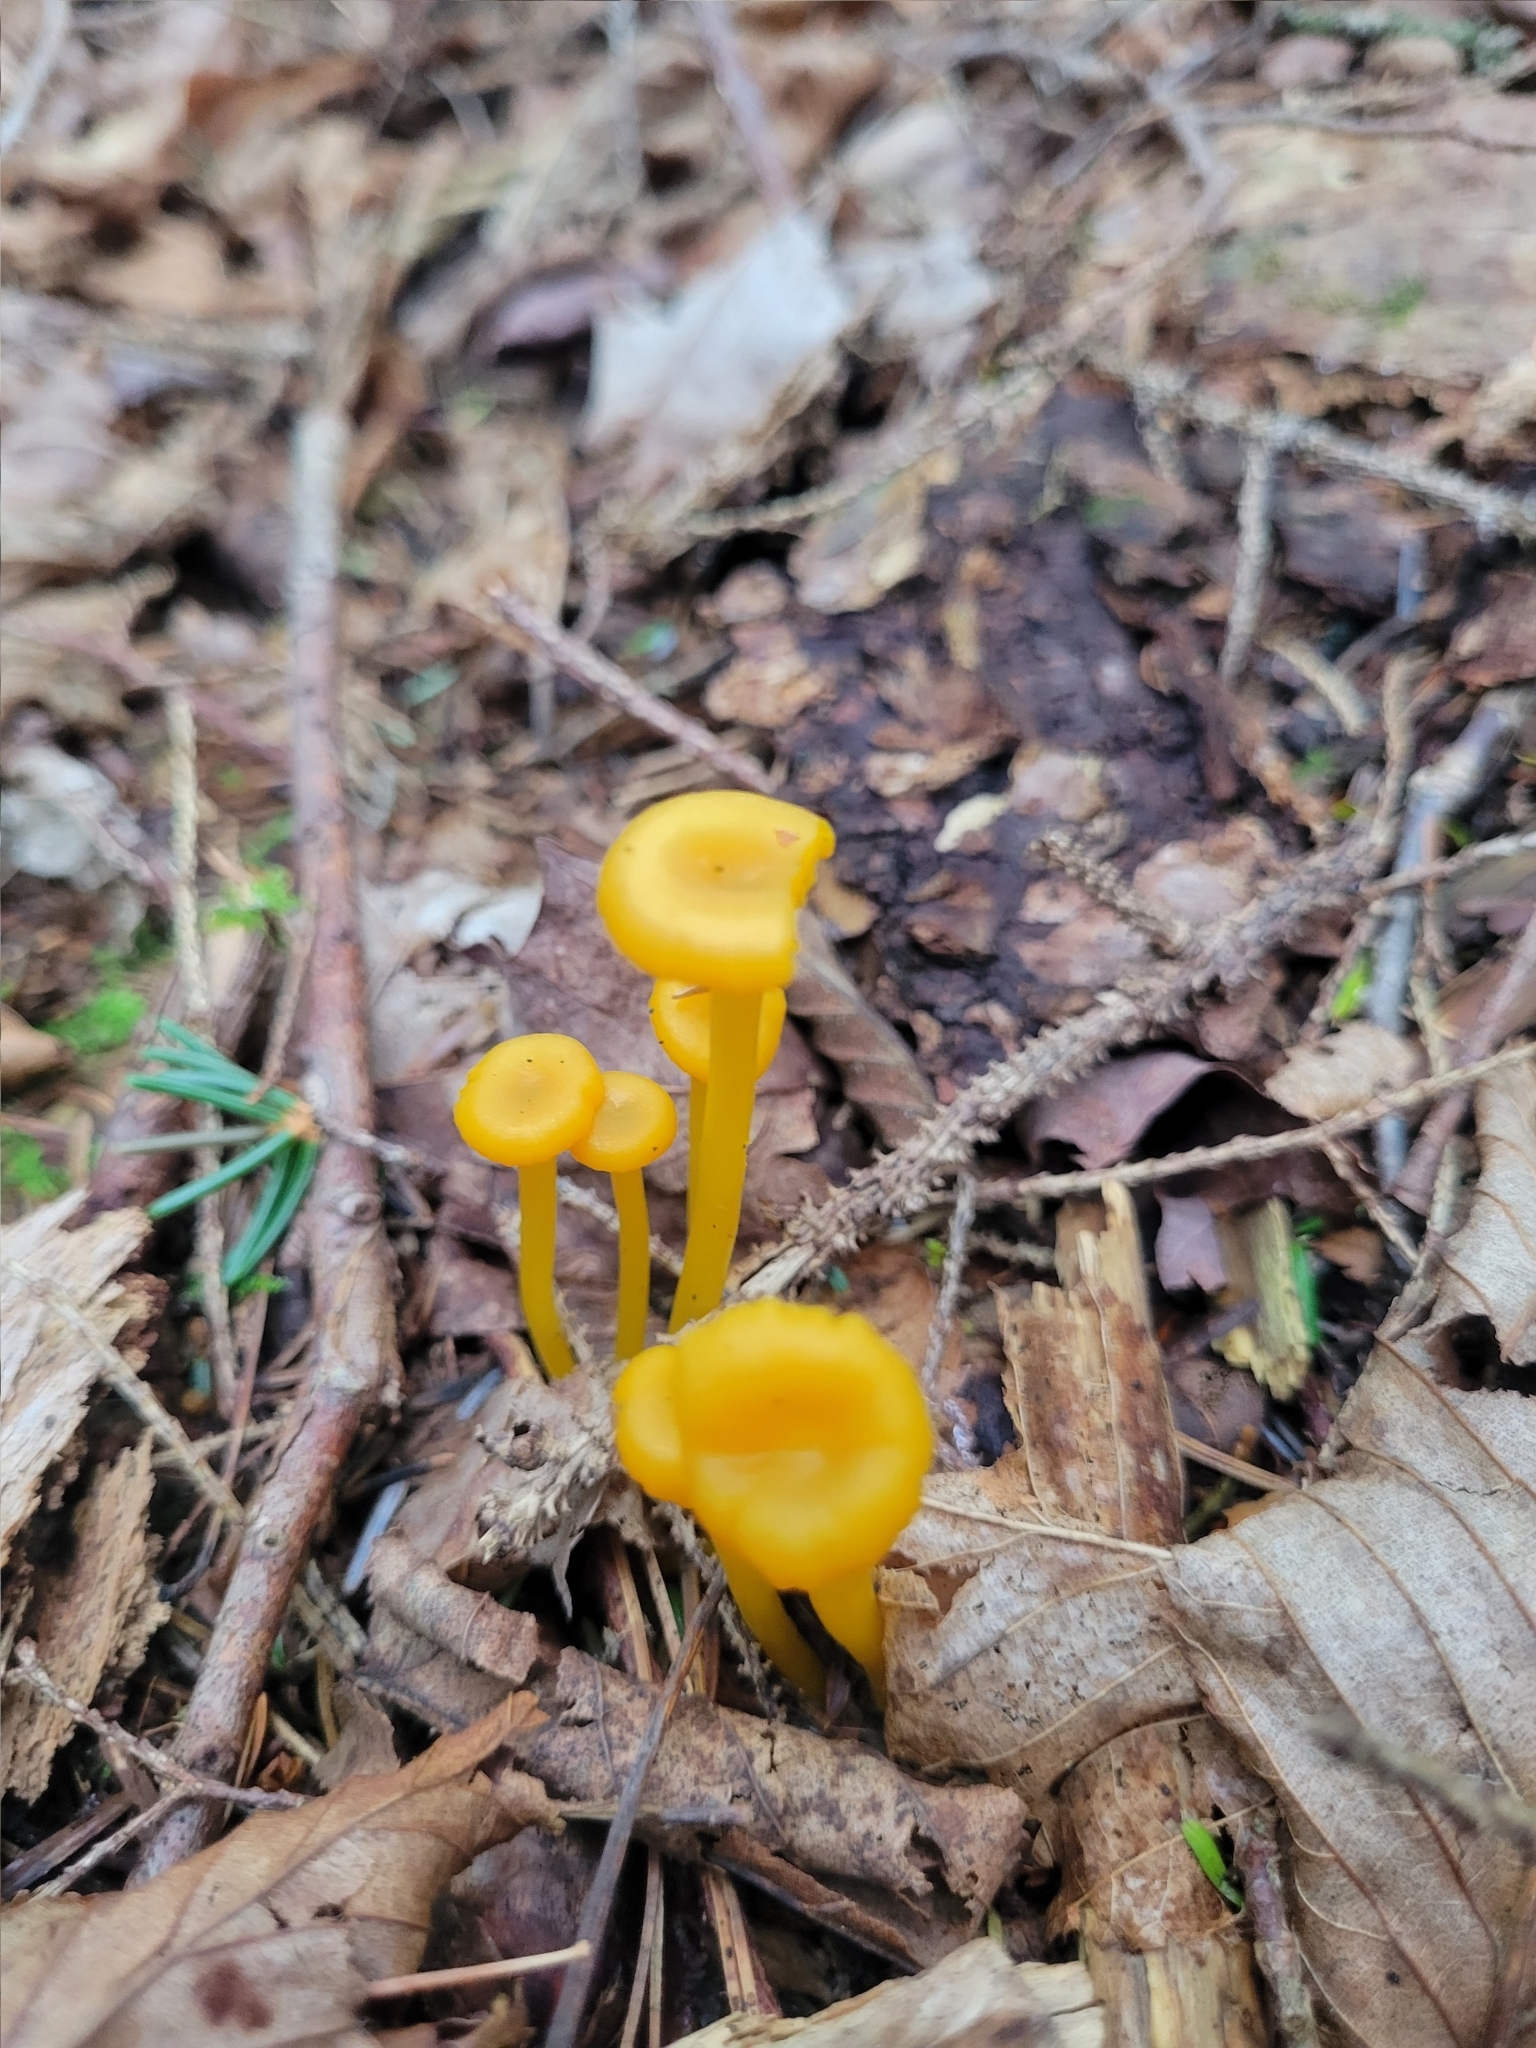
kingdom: Fungi
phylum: Basidiomycota
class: Agaricomycetes
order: Agaricales
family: Hygrophoraceae
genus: Gloioxanthomyces
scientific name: Gloioxanthomyces nitidus
